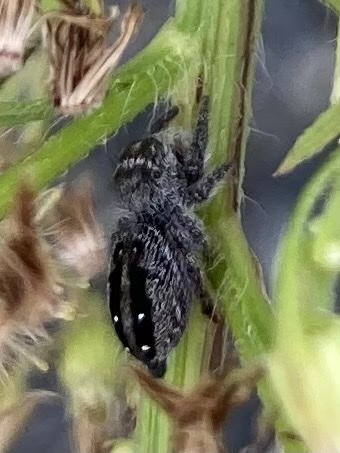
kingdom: Animalia
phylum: Arthropoda
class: Arachnida
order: Araneae
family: Salticidae
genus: Phidippus
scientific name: Phidippus purpuratus
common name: Marbled purple jumping spider
